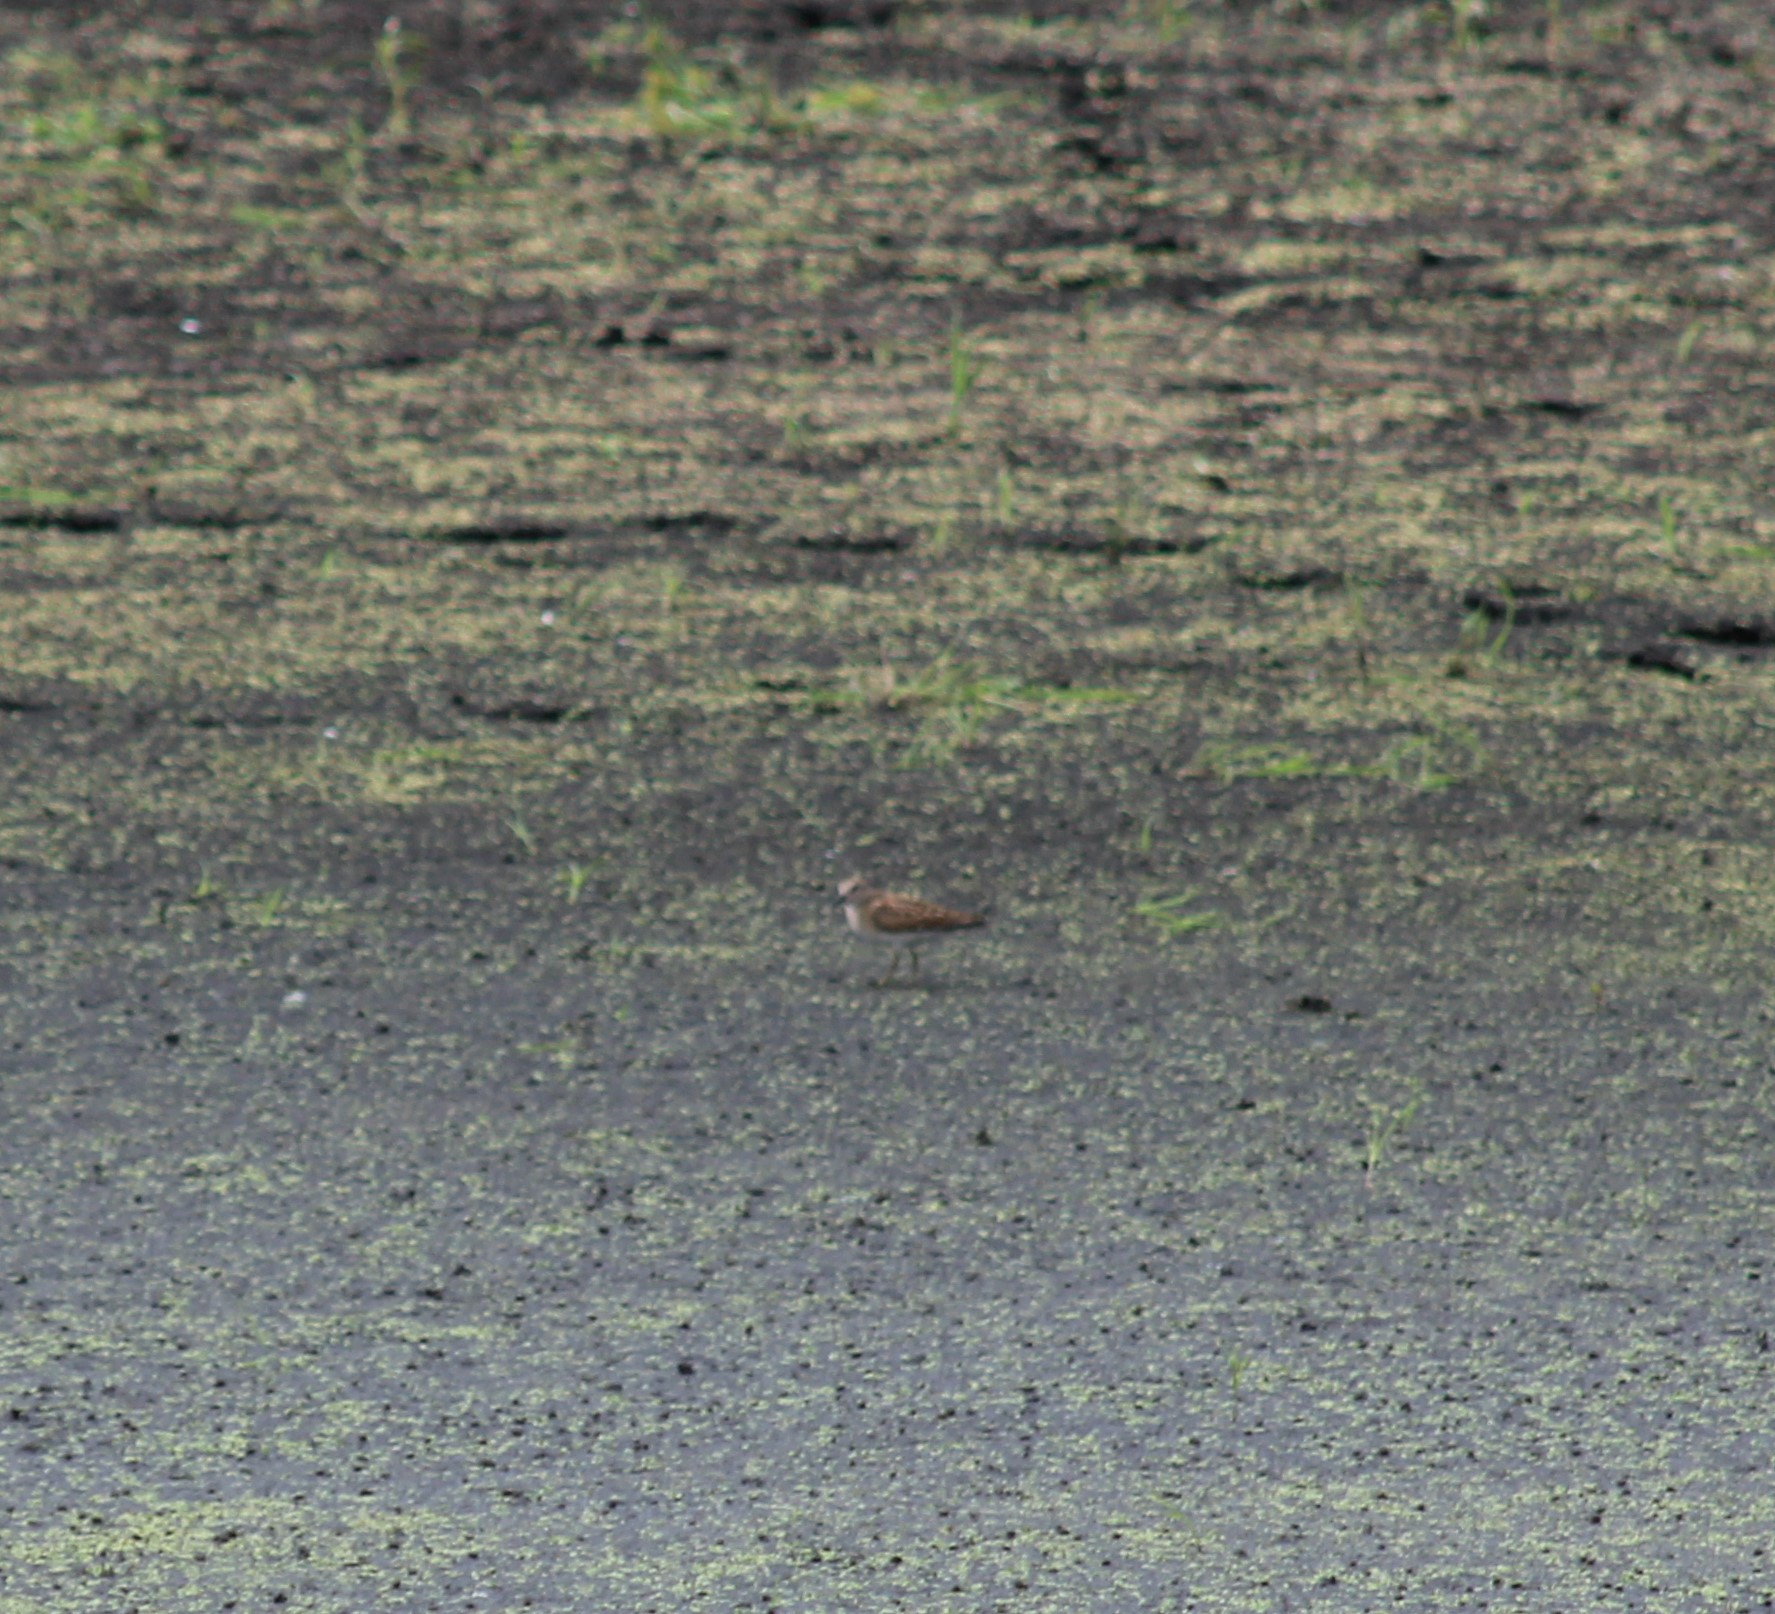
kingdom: Animalia
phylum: Chordata
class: Aves
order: Charadriiformes
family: Scolopacidae
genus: Calidris
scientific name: Calidris minutilla
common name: Least sandpiper
